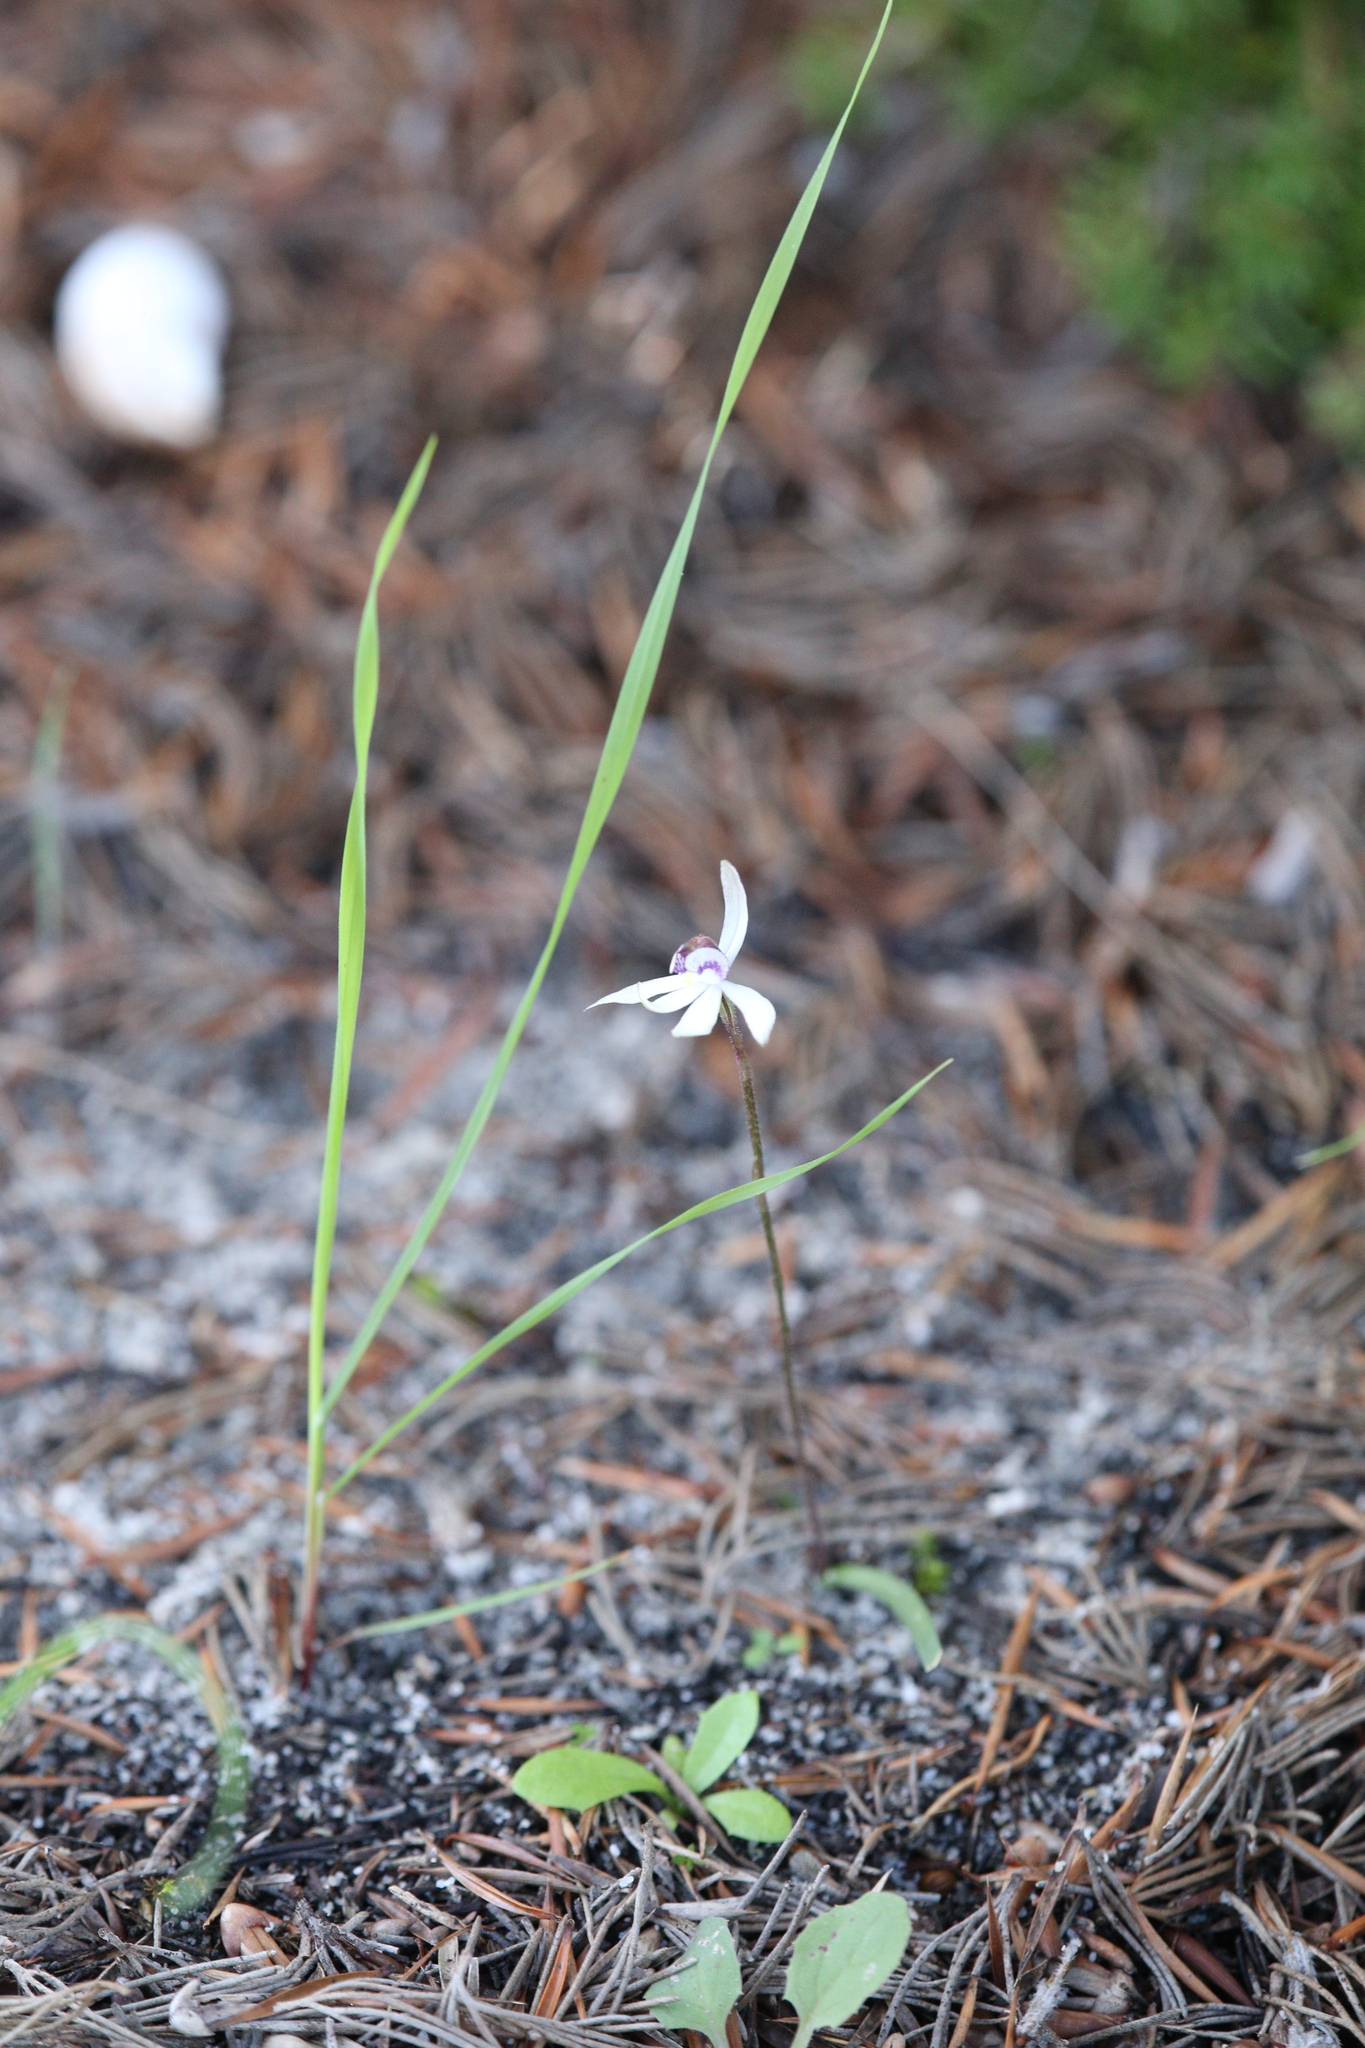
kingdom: Plantae
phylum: Tracheophyta
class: Liliopsida
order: Asparagales
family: Orchidaceae
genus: Caladenia
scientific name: Caladenia saccharata
